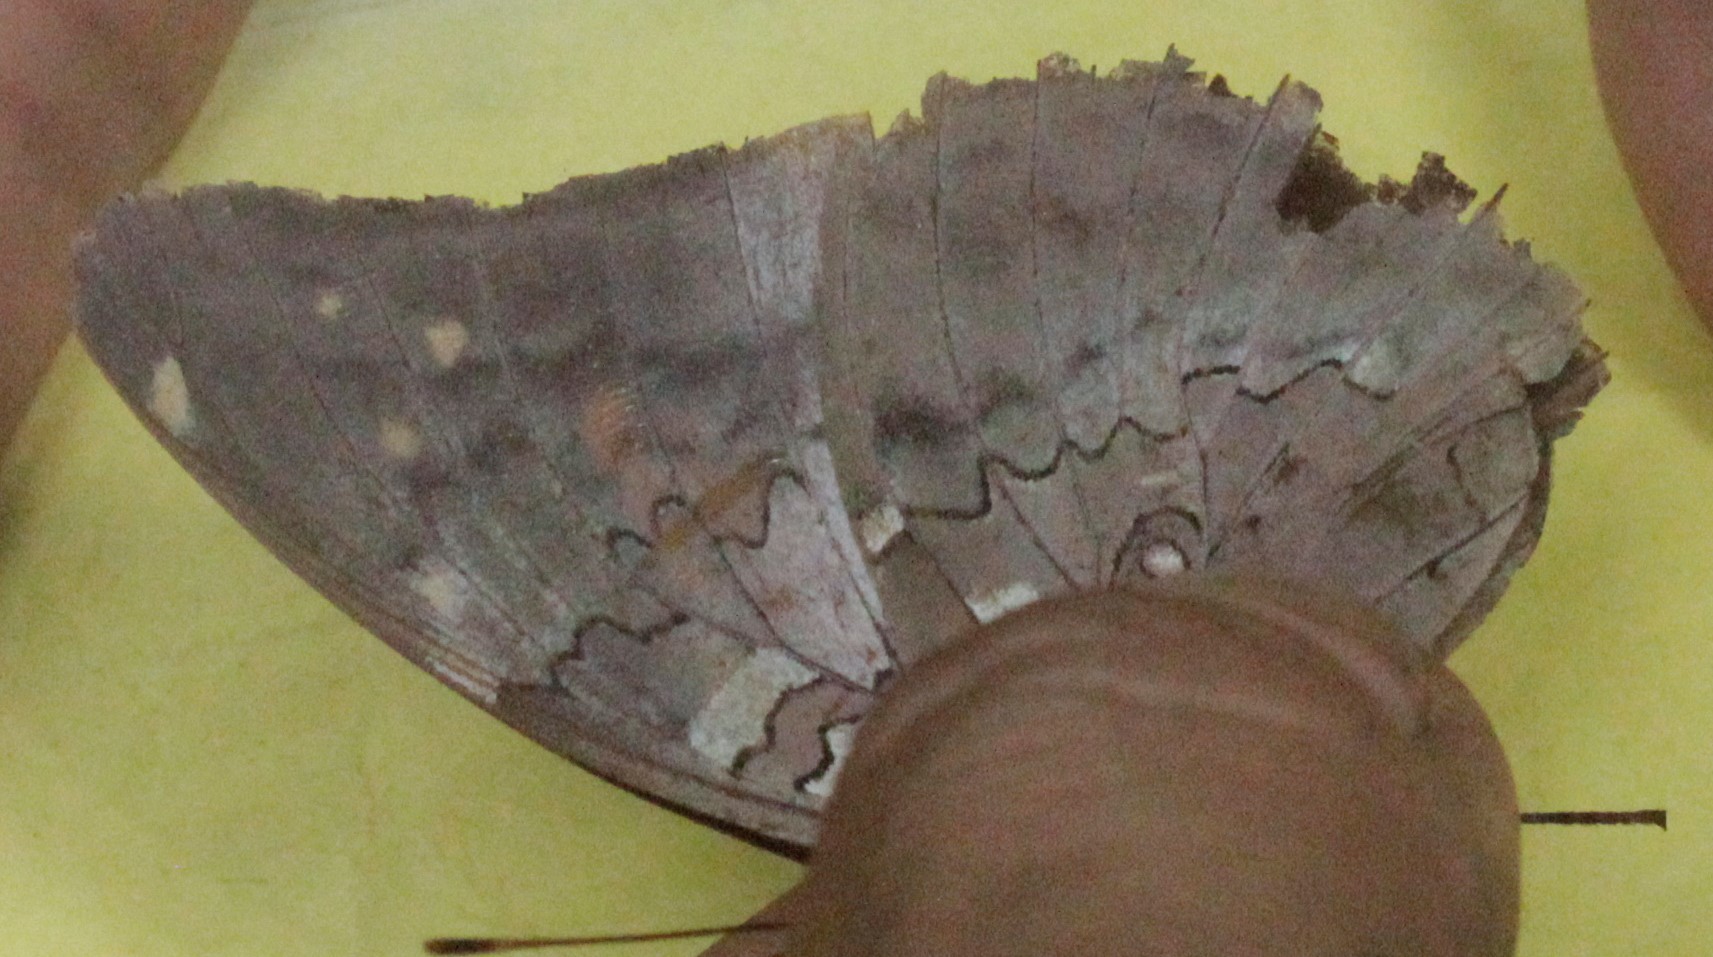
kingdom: Animalia
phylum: Arthropoda
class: Insecta
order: Lepidoptera
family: Nymphalidae
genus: Coea
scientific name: Coea acheronta
